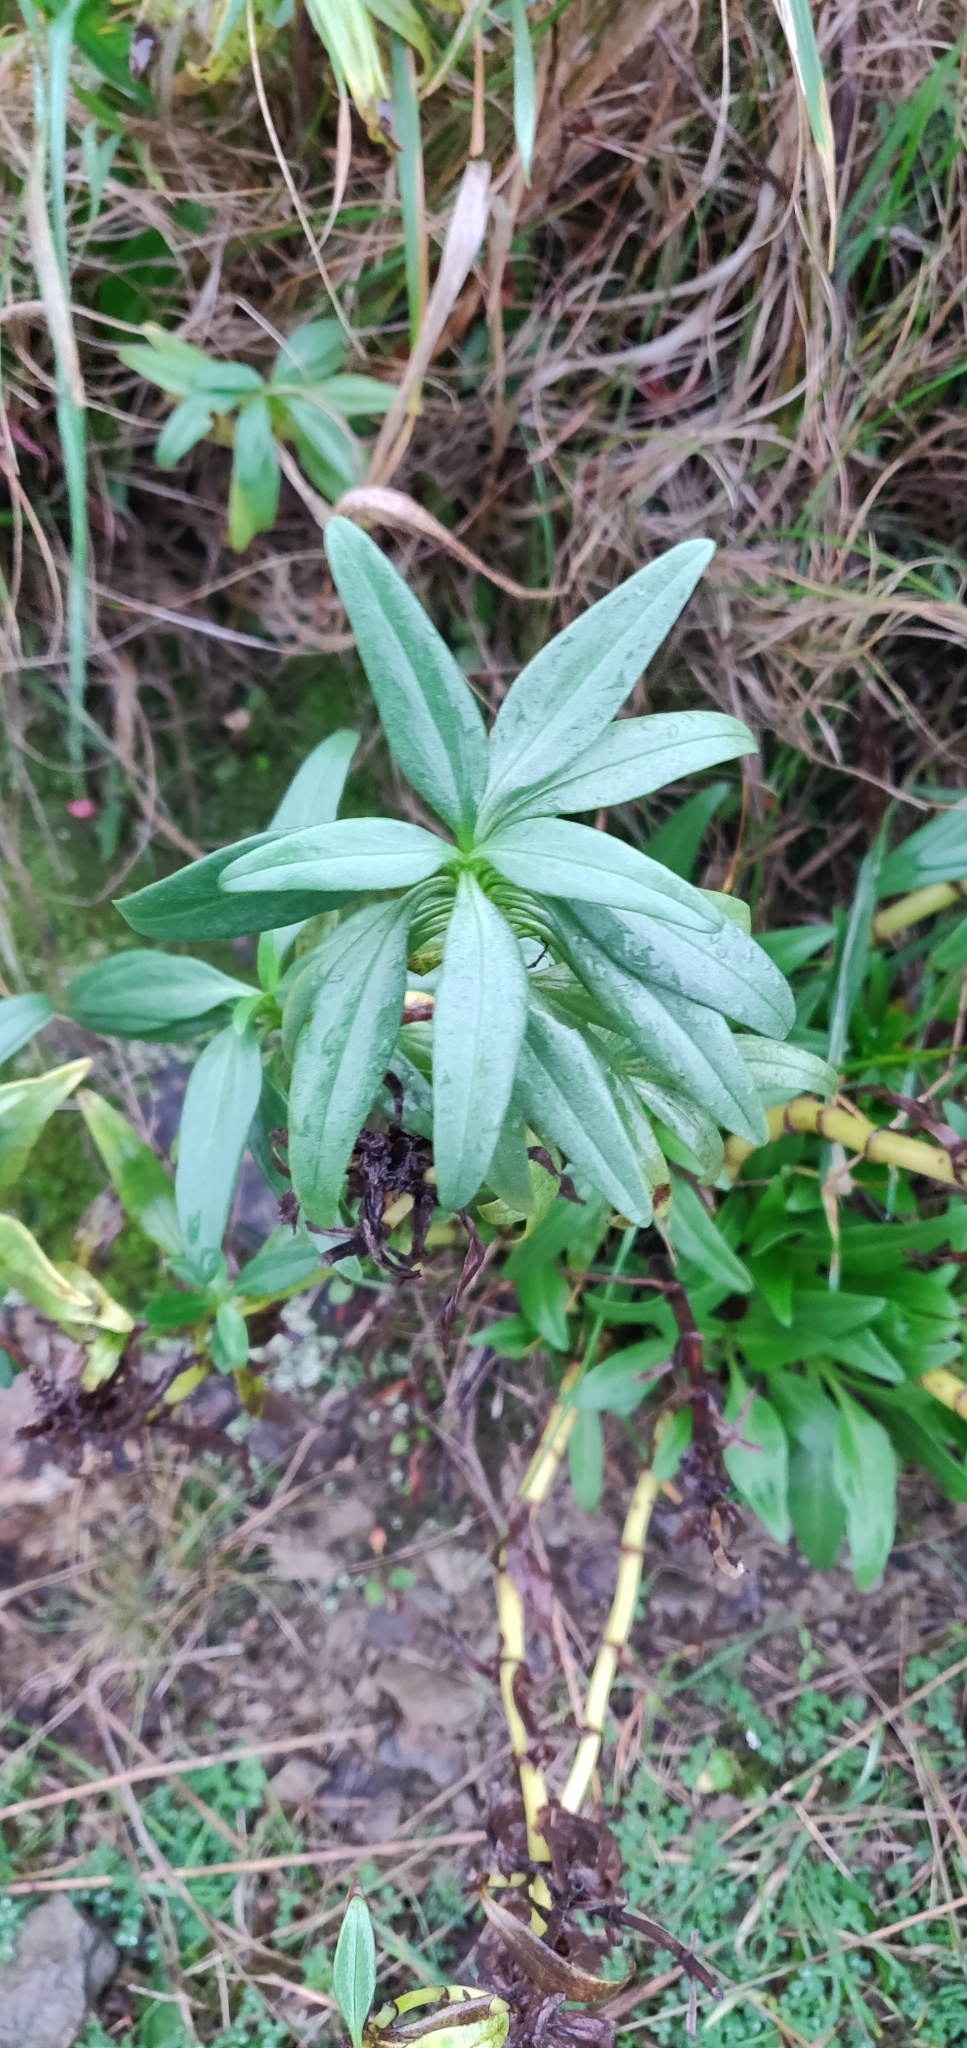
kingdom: Plantae
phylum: Tracheophyta
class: Magnoliopsida
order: Dipsacales
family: Caprifoliaceae
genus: Centranthus
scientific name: Centranthus ruber
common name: Red valerian
